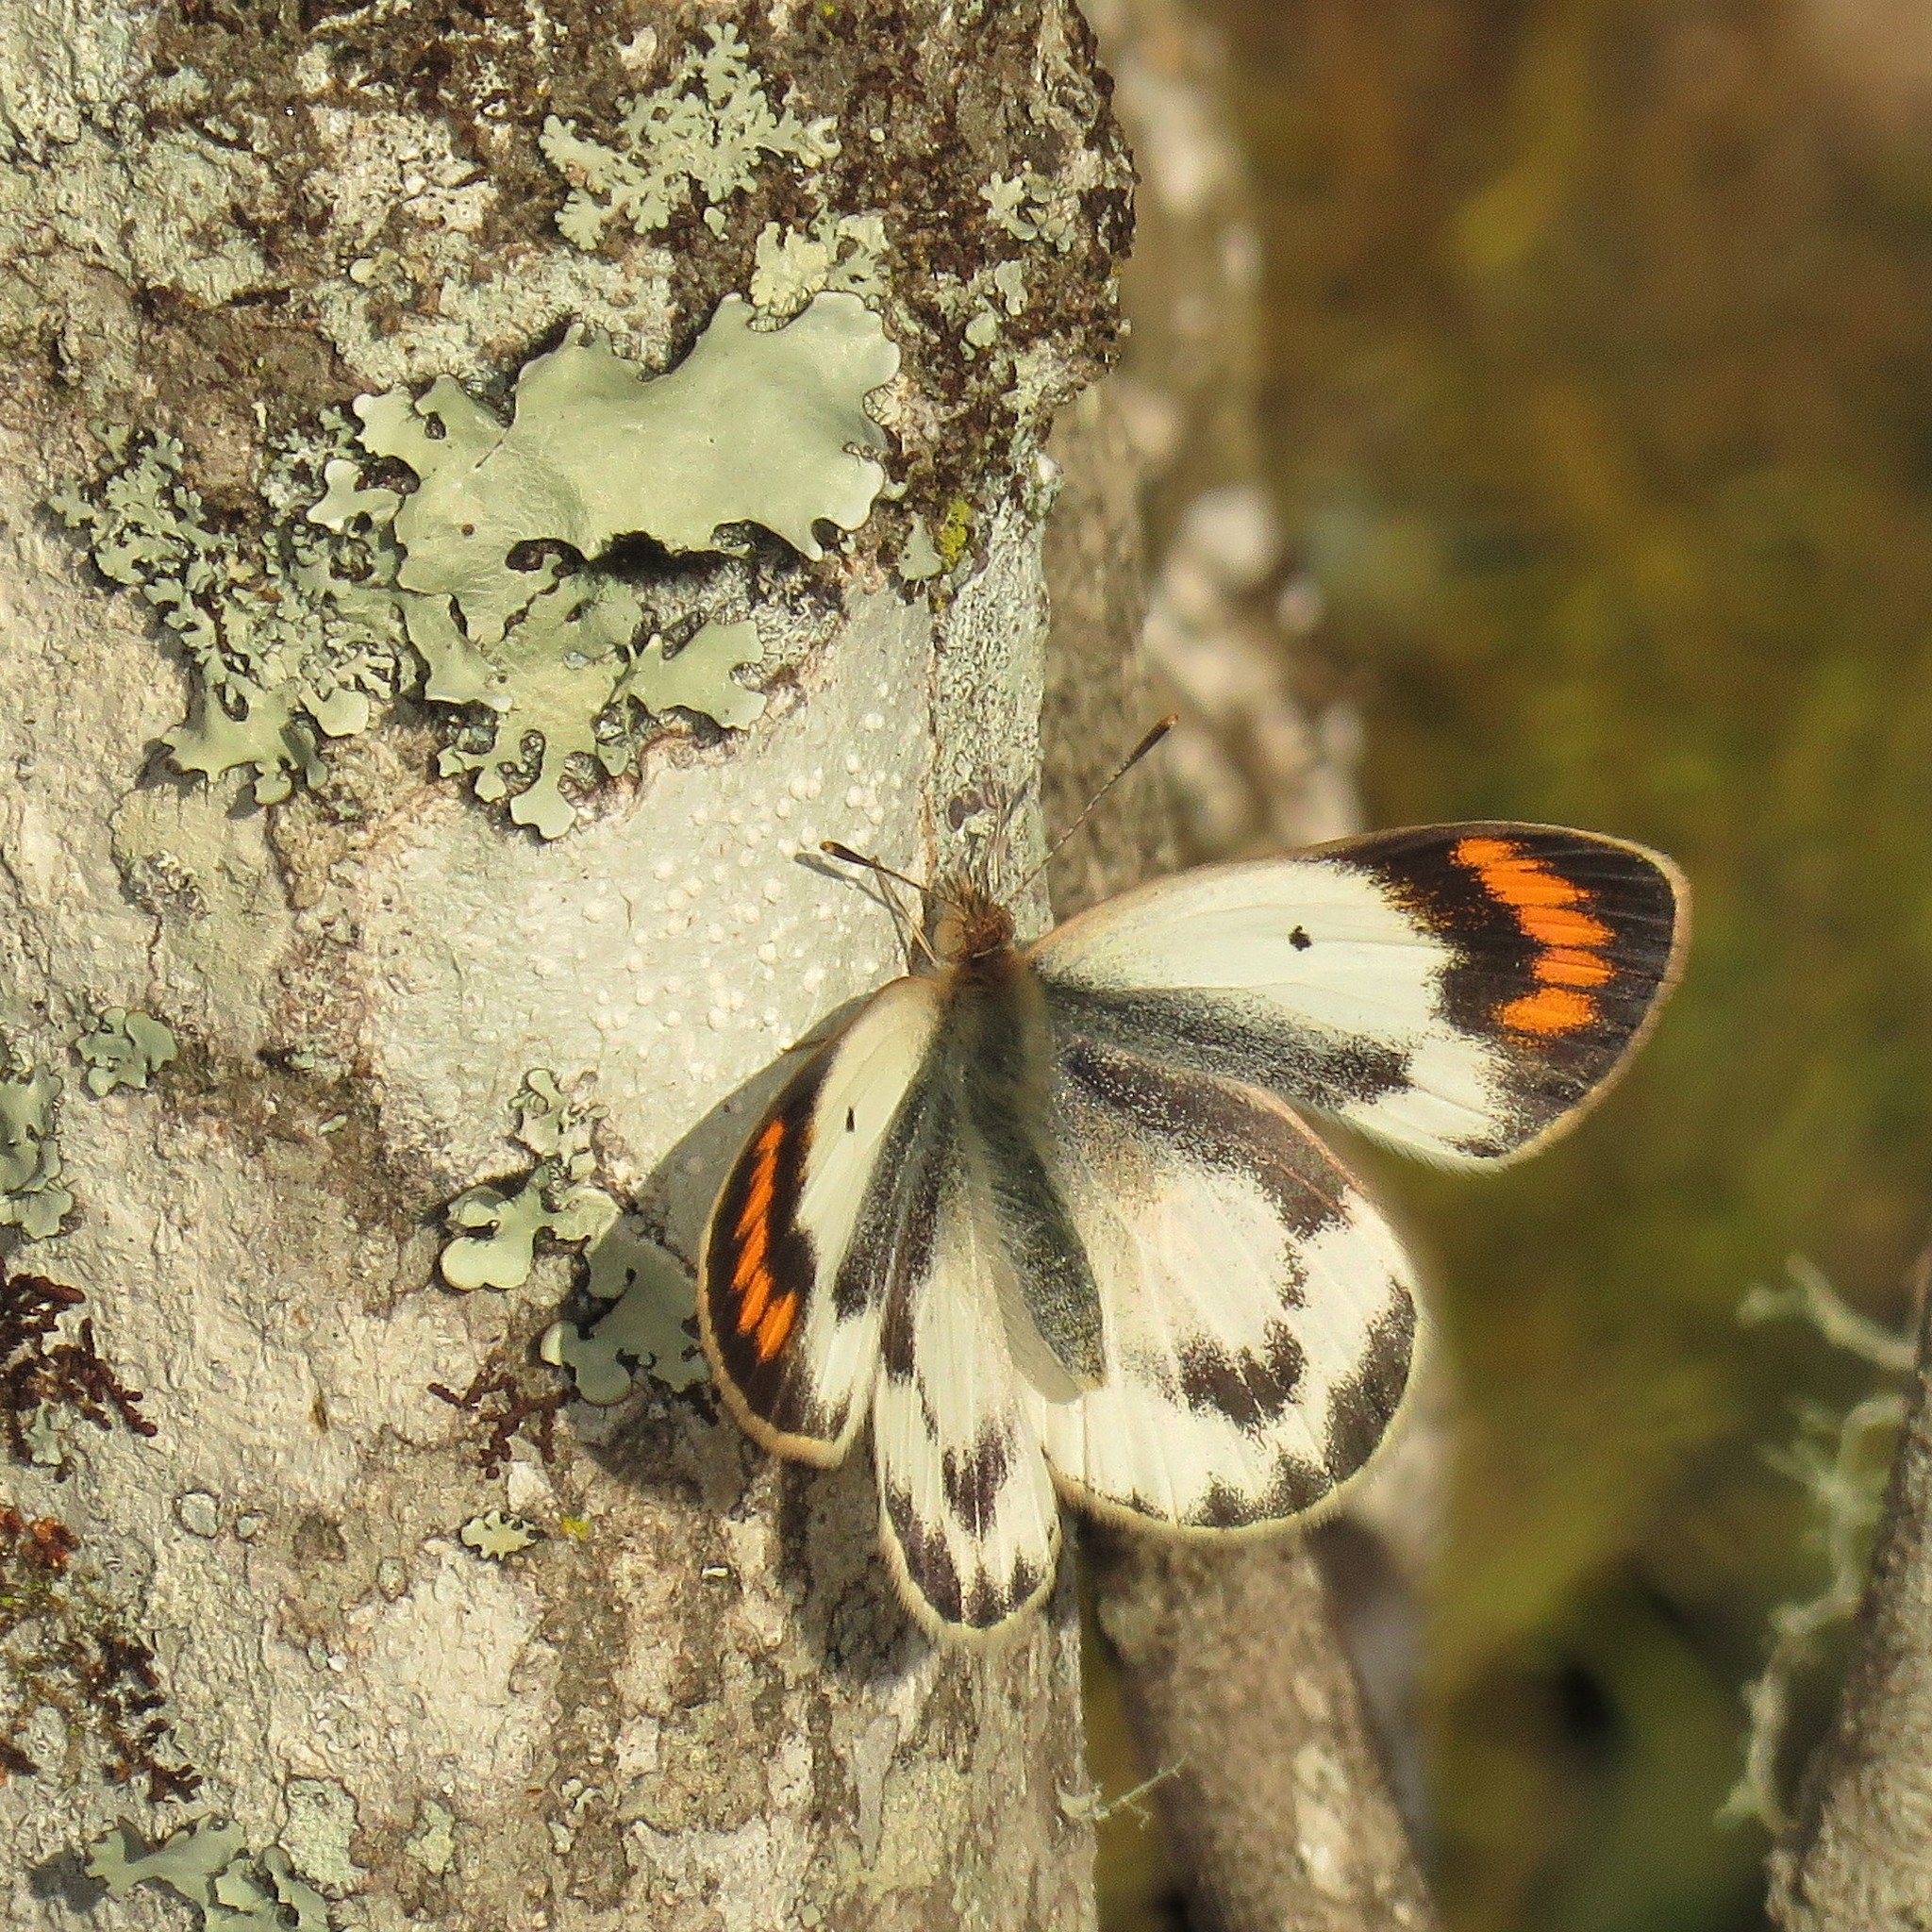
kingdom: Animalia
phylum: Arthropoda
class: Insecta
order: Lepidoptera
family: Pieridae
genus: Colotis
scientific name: Colotis evagore
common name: Desert orange-tip
